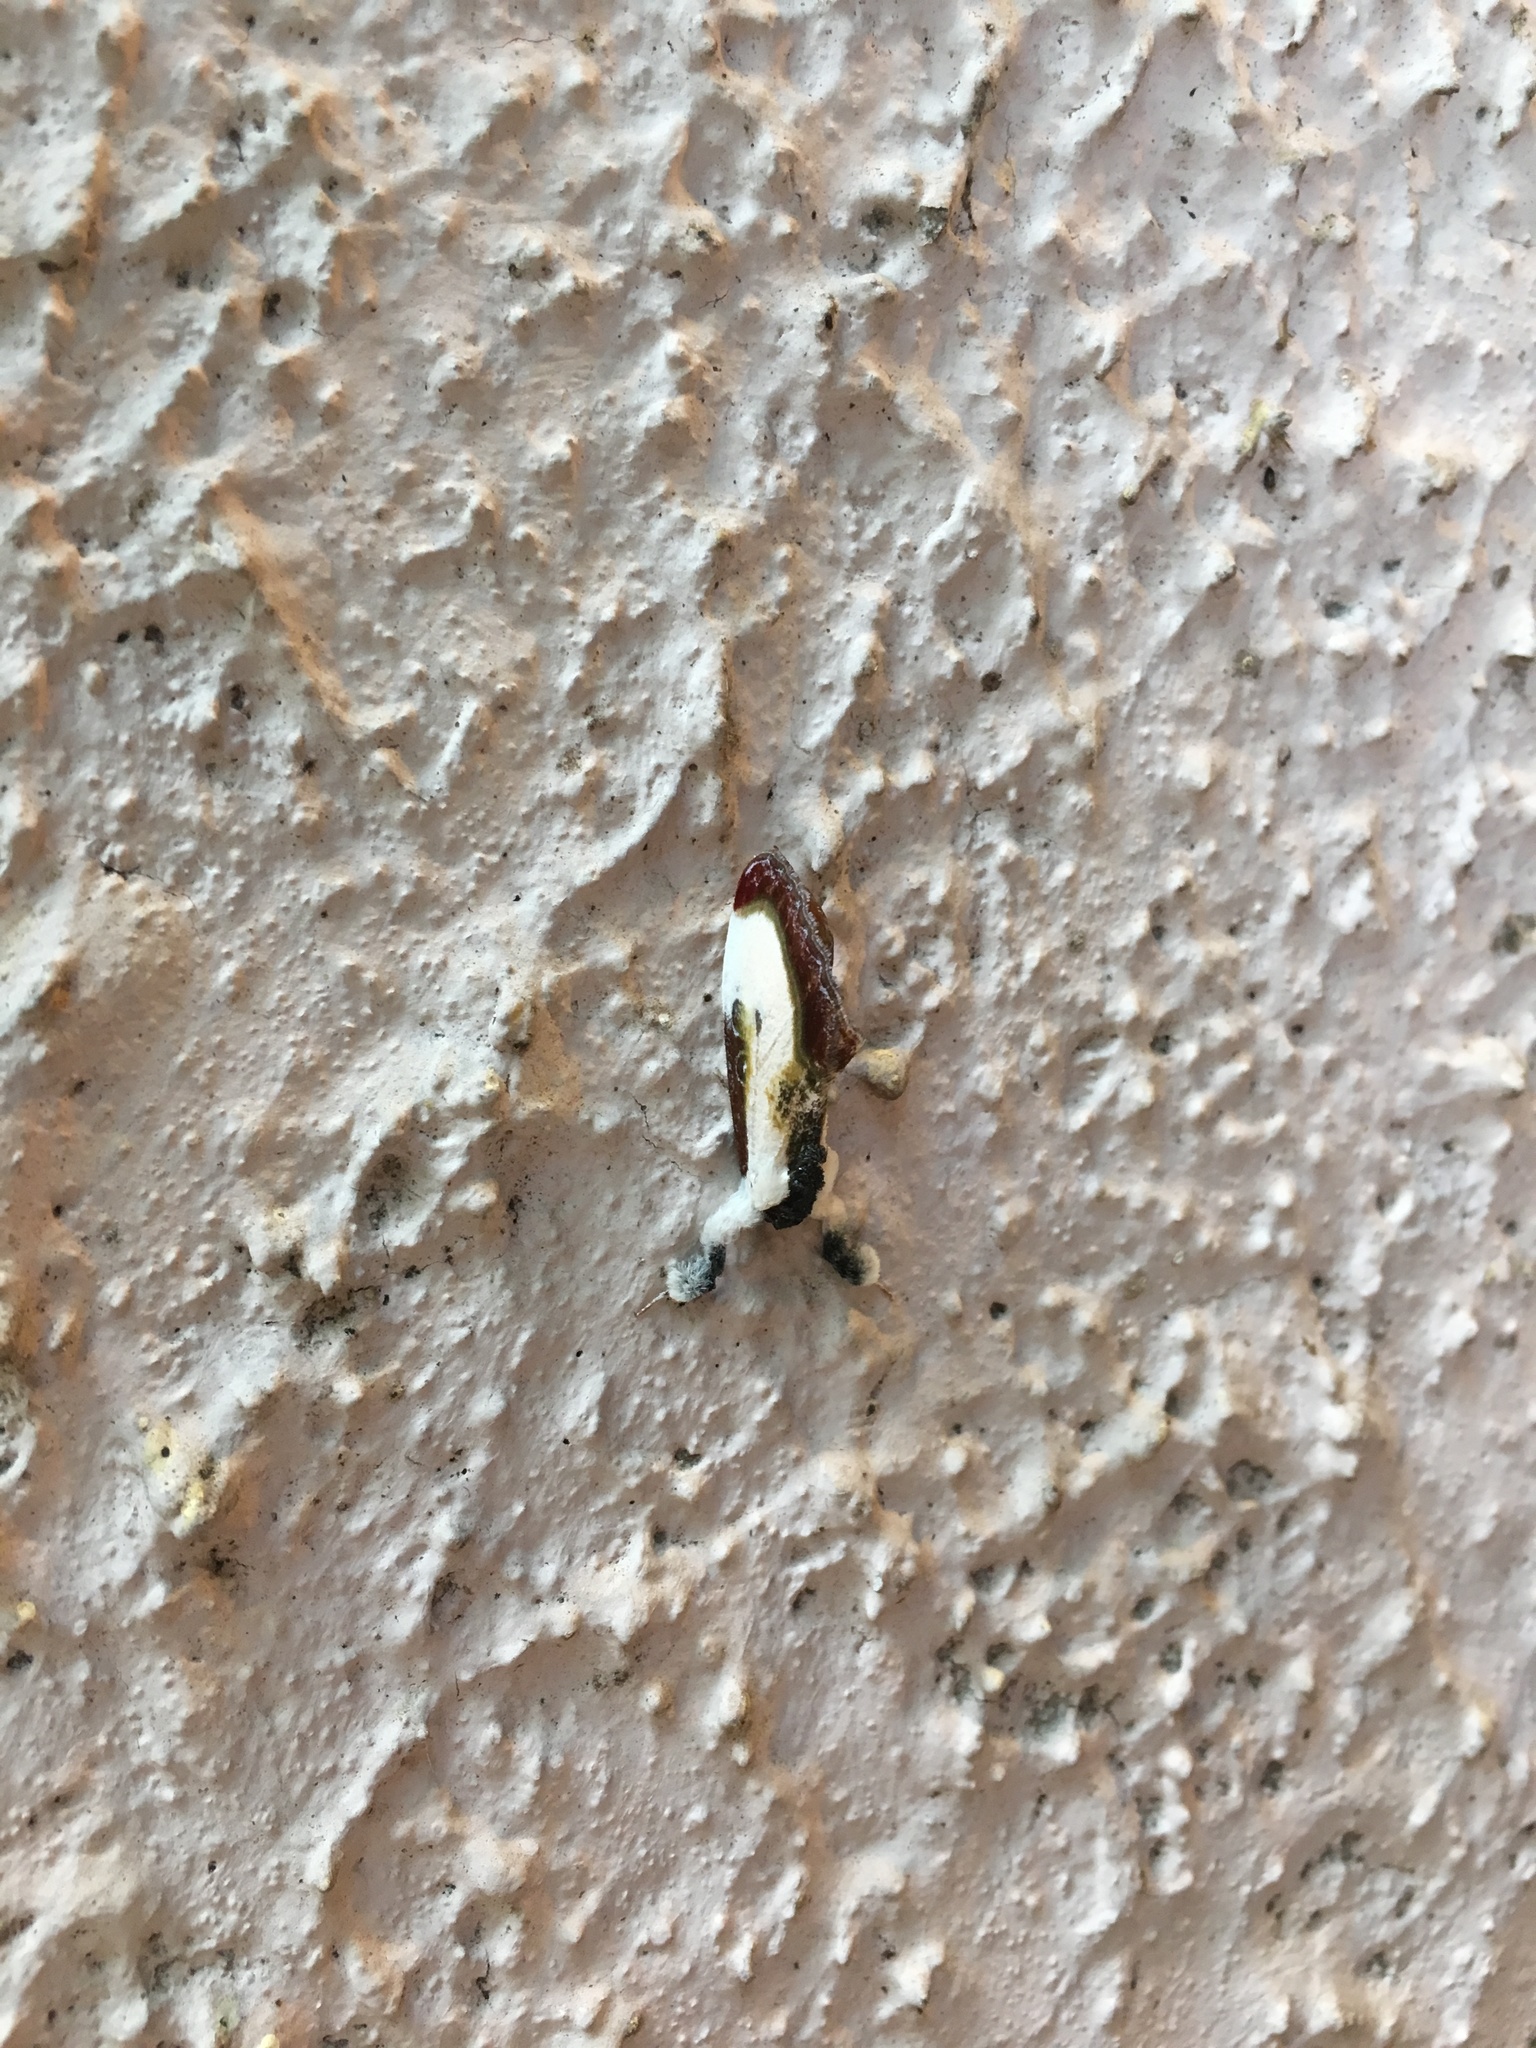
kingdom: Animalia
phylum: Arthropoda
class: Insecta
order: Lepidoptera
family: Noctuidae
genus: Eudryas
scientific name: Eudryas grata
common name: Beautiful wood-nymph
